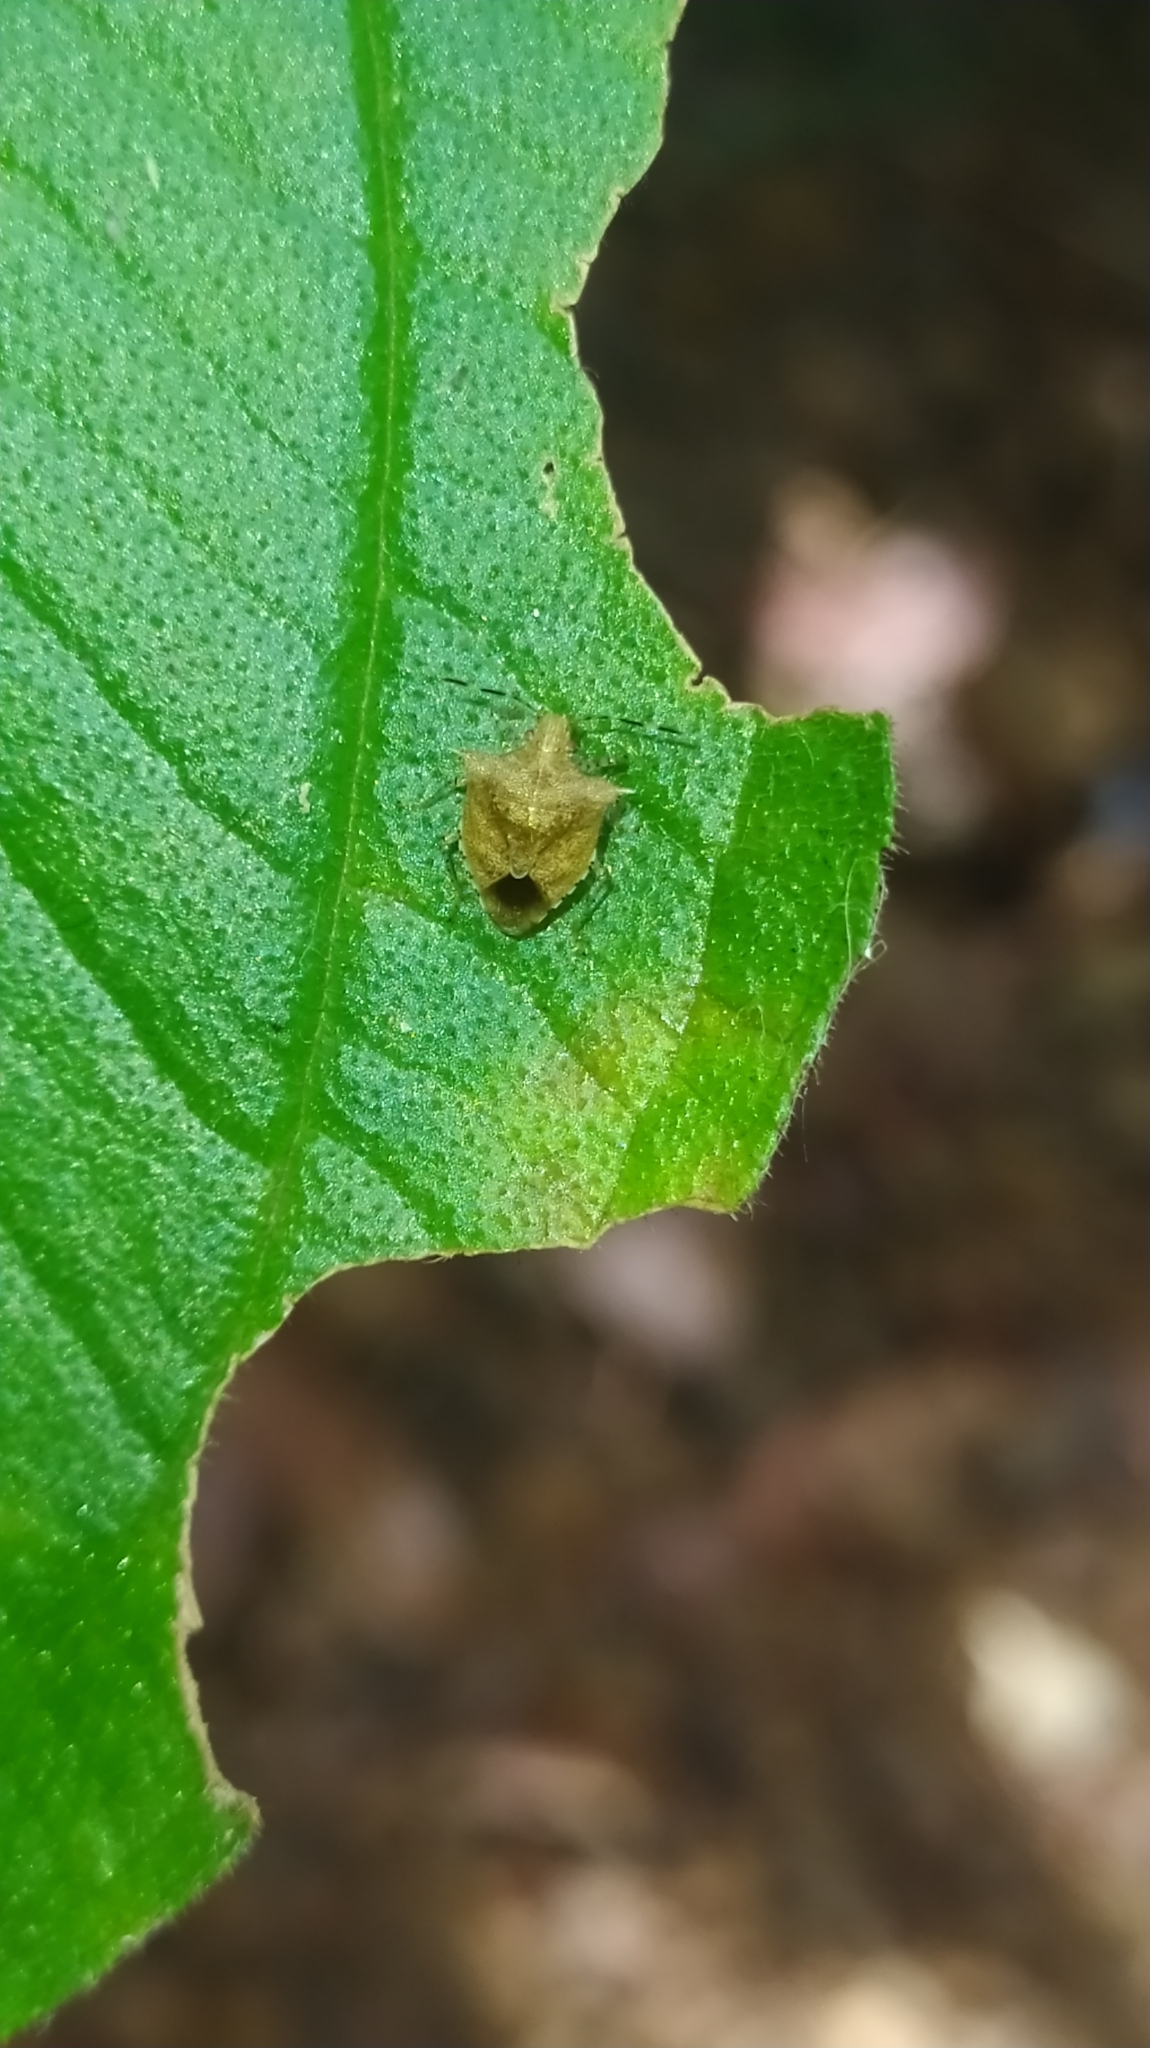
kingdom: Animalia
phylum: Arthropoda
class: Insecta
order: Hemiptera
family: Pentatomidae
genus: Lattinidea
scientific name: Lattinidea
